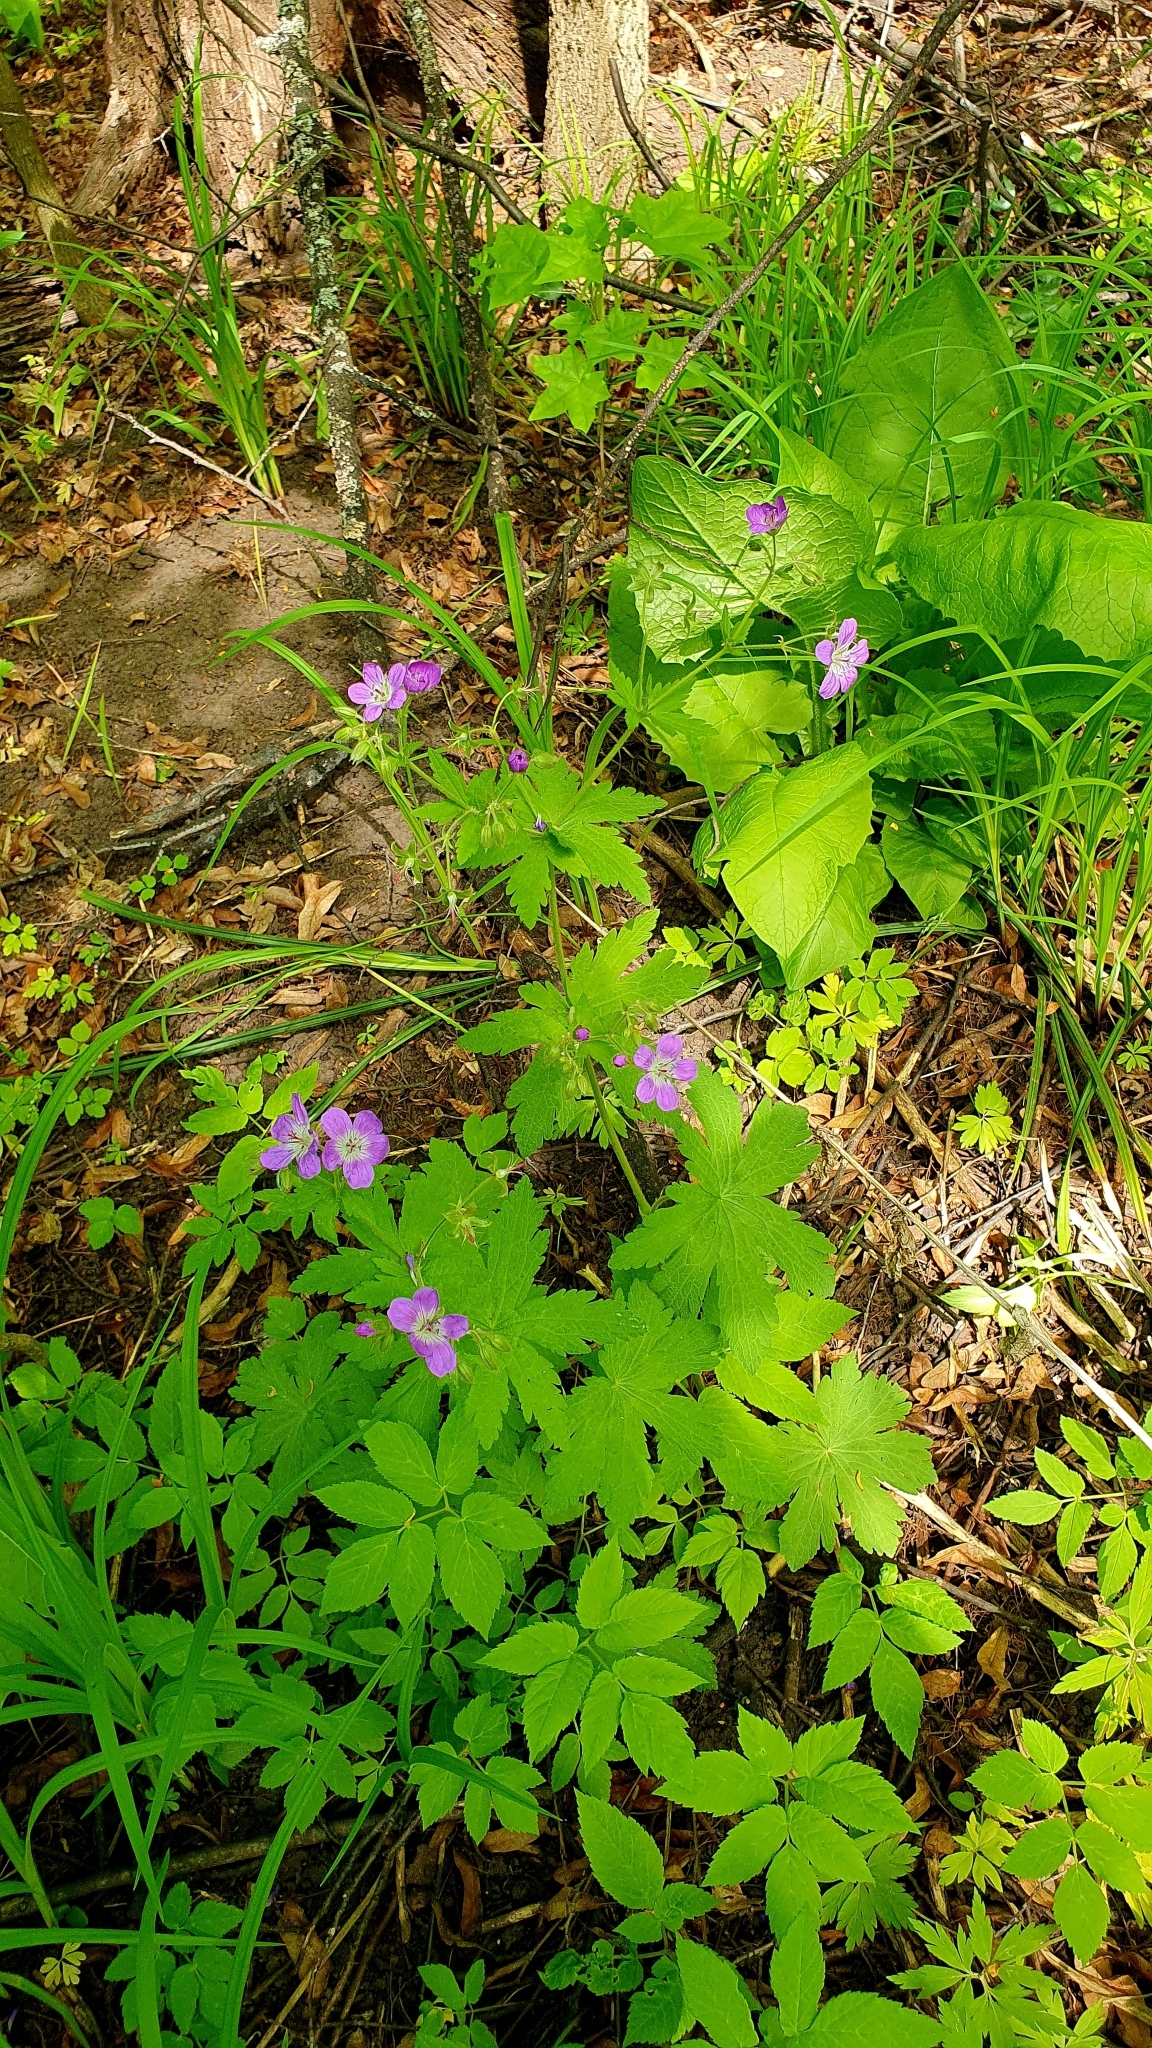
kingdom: Plantae
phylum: Tracheophyta
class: Magnoliopsida
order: Geraniales
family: Geraniaceae
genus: Geranium
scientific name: Geranium sylvaticum
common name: Wood crane's-bill
